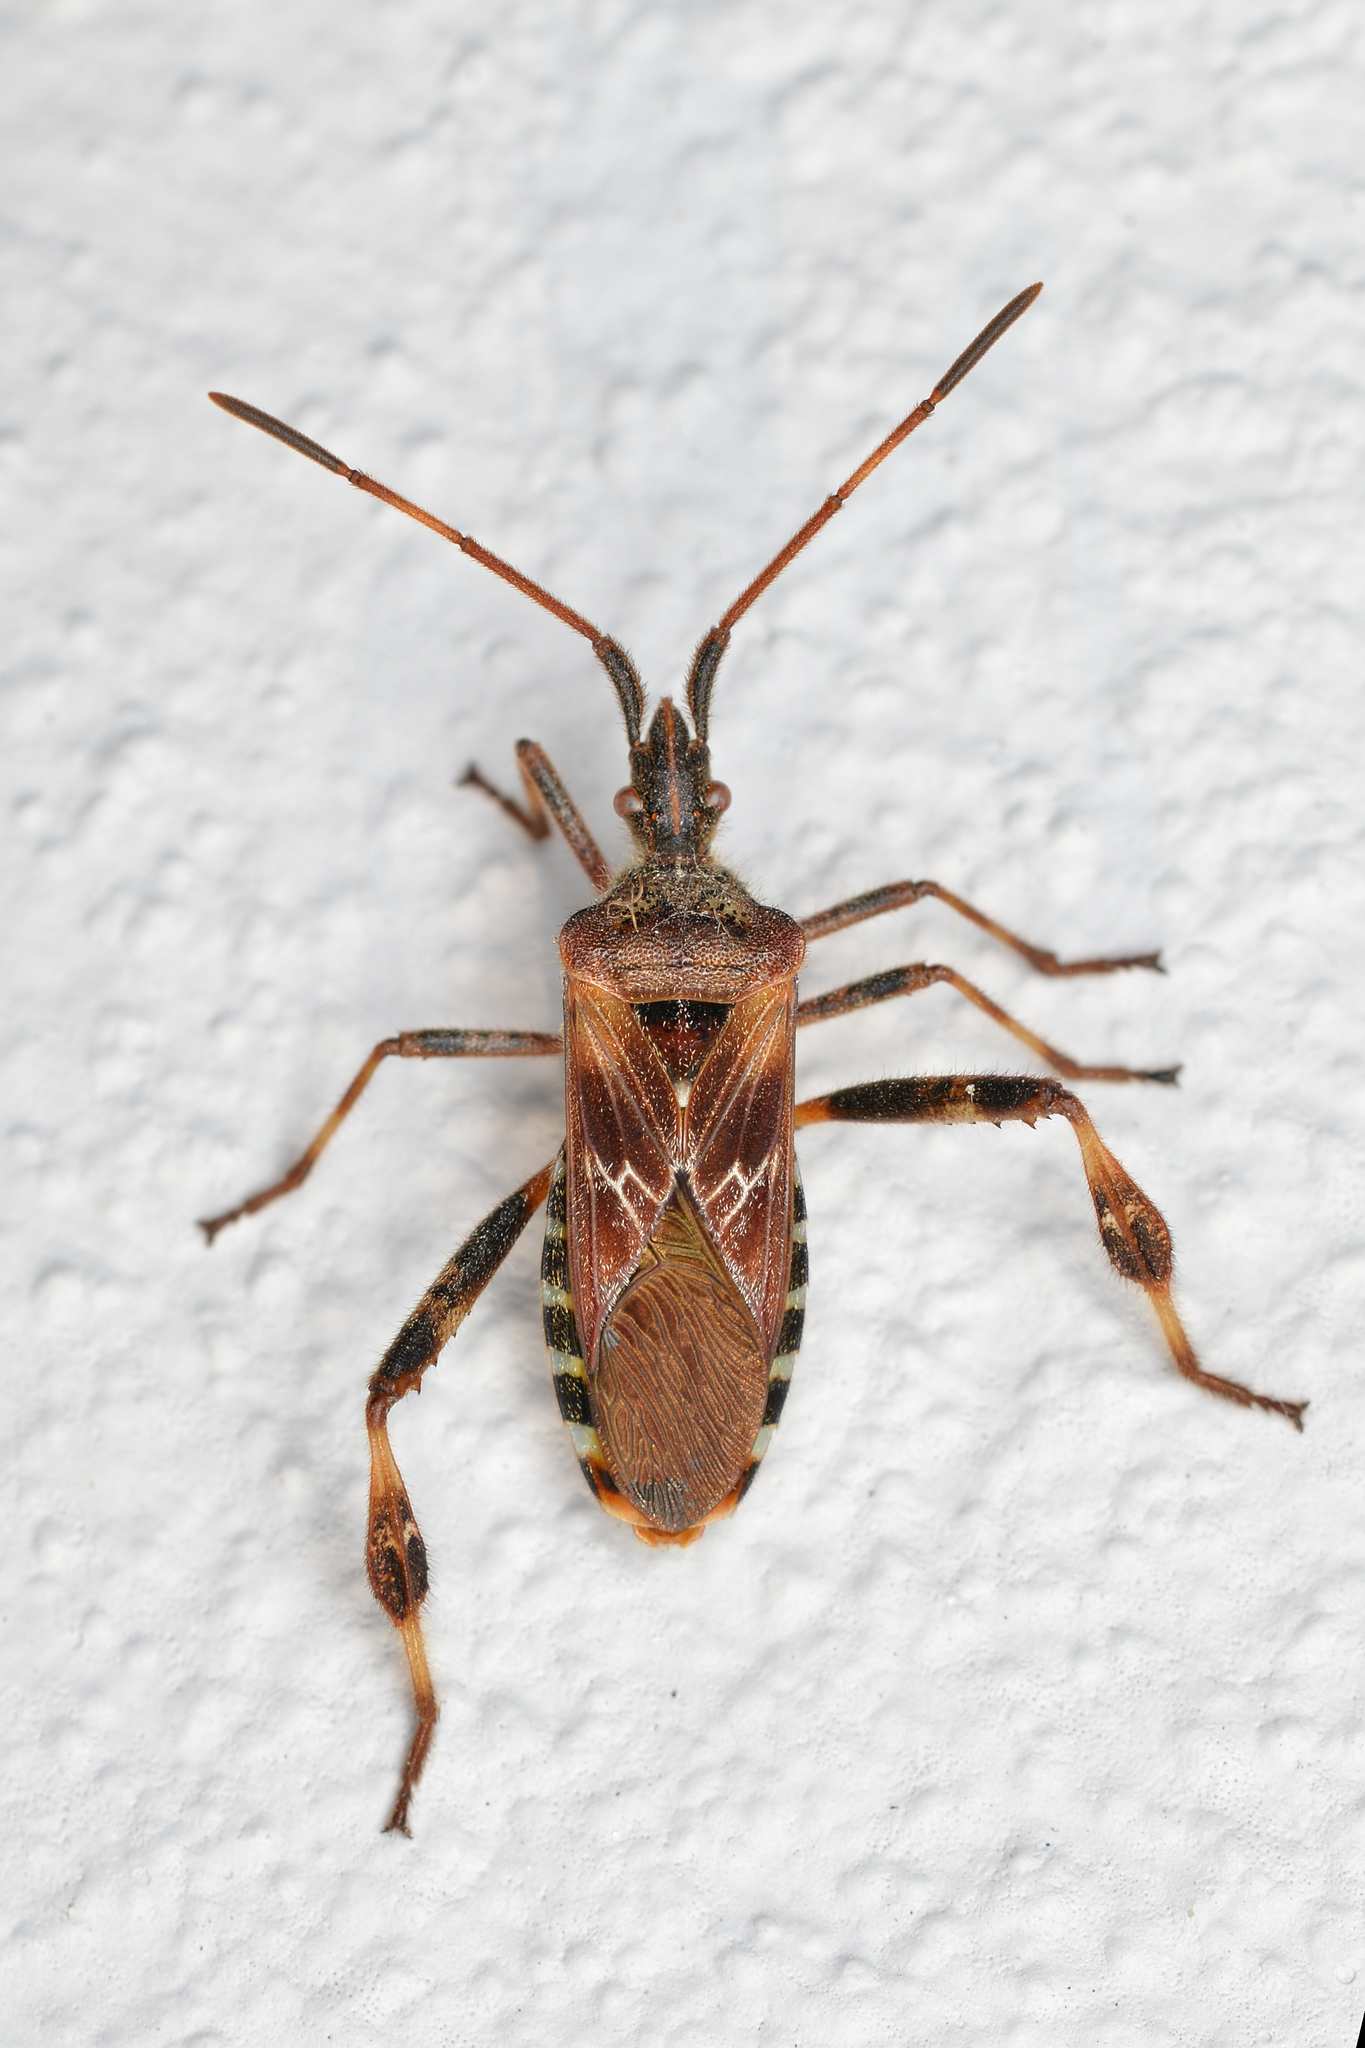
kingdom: Animalia
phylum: Arthropoda
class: Insecta
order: Hemiptera
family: Coreidae
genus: Leptoglossus
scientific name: Leptoglossus occidentalis
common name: Western conifer-seed bug
